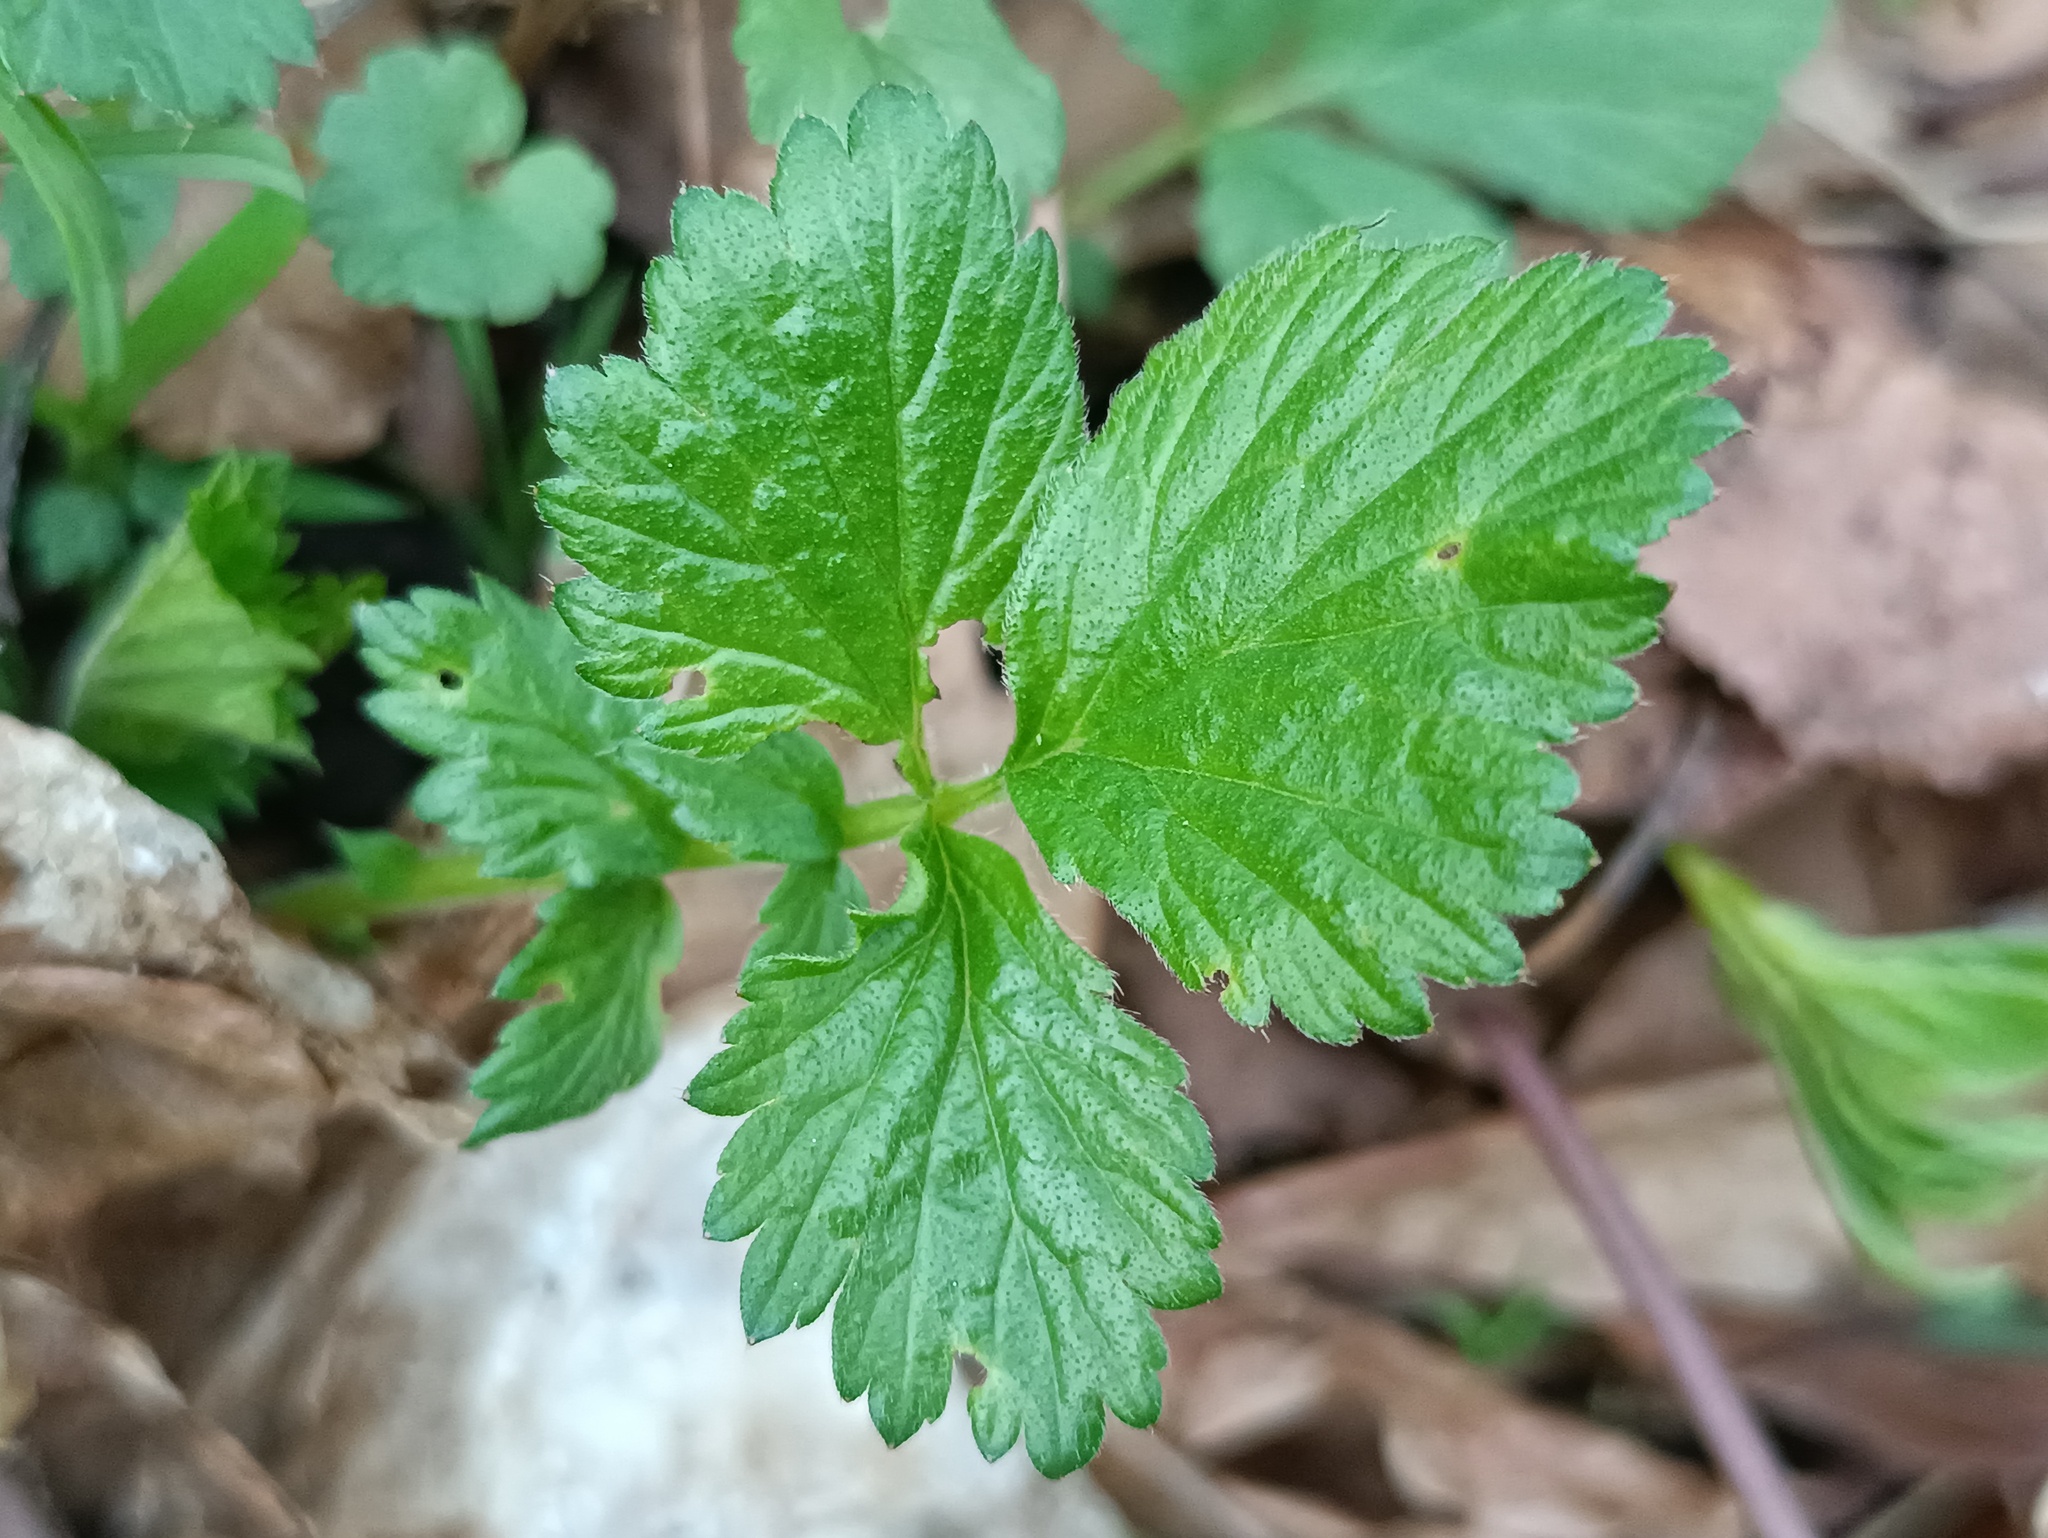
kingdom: Plantae
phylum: Tracheophyta
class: Magnoliopsida
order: Rosales
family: Rosaceae
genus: Geum
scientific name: Geum urbanum
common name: Wood avens
